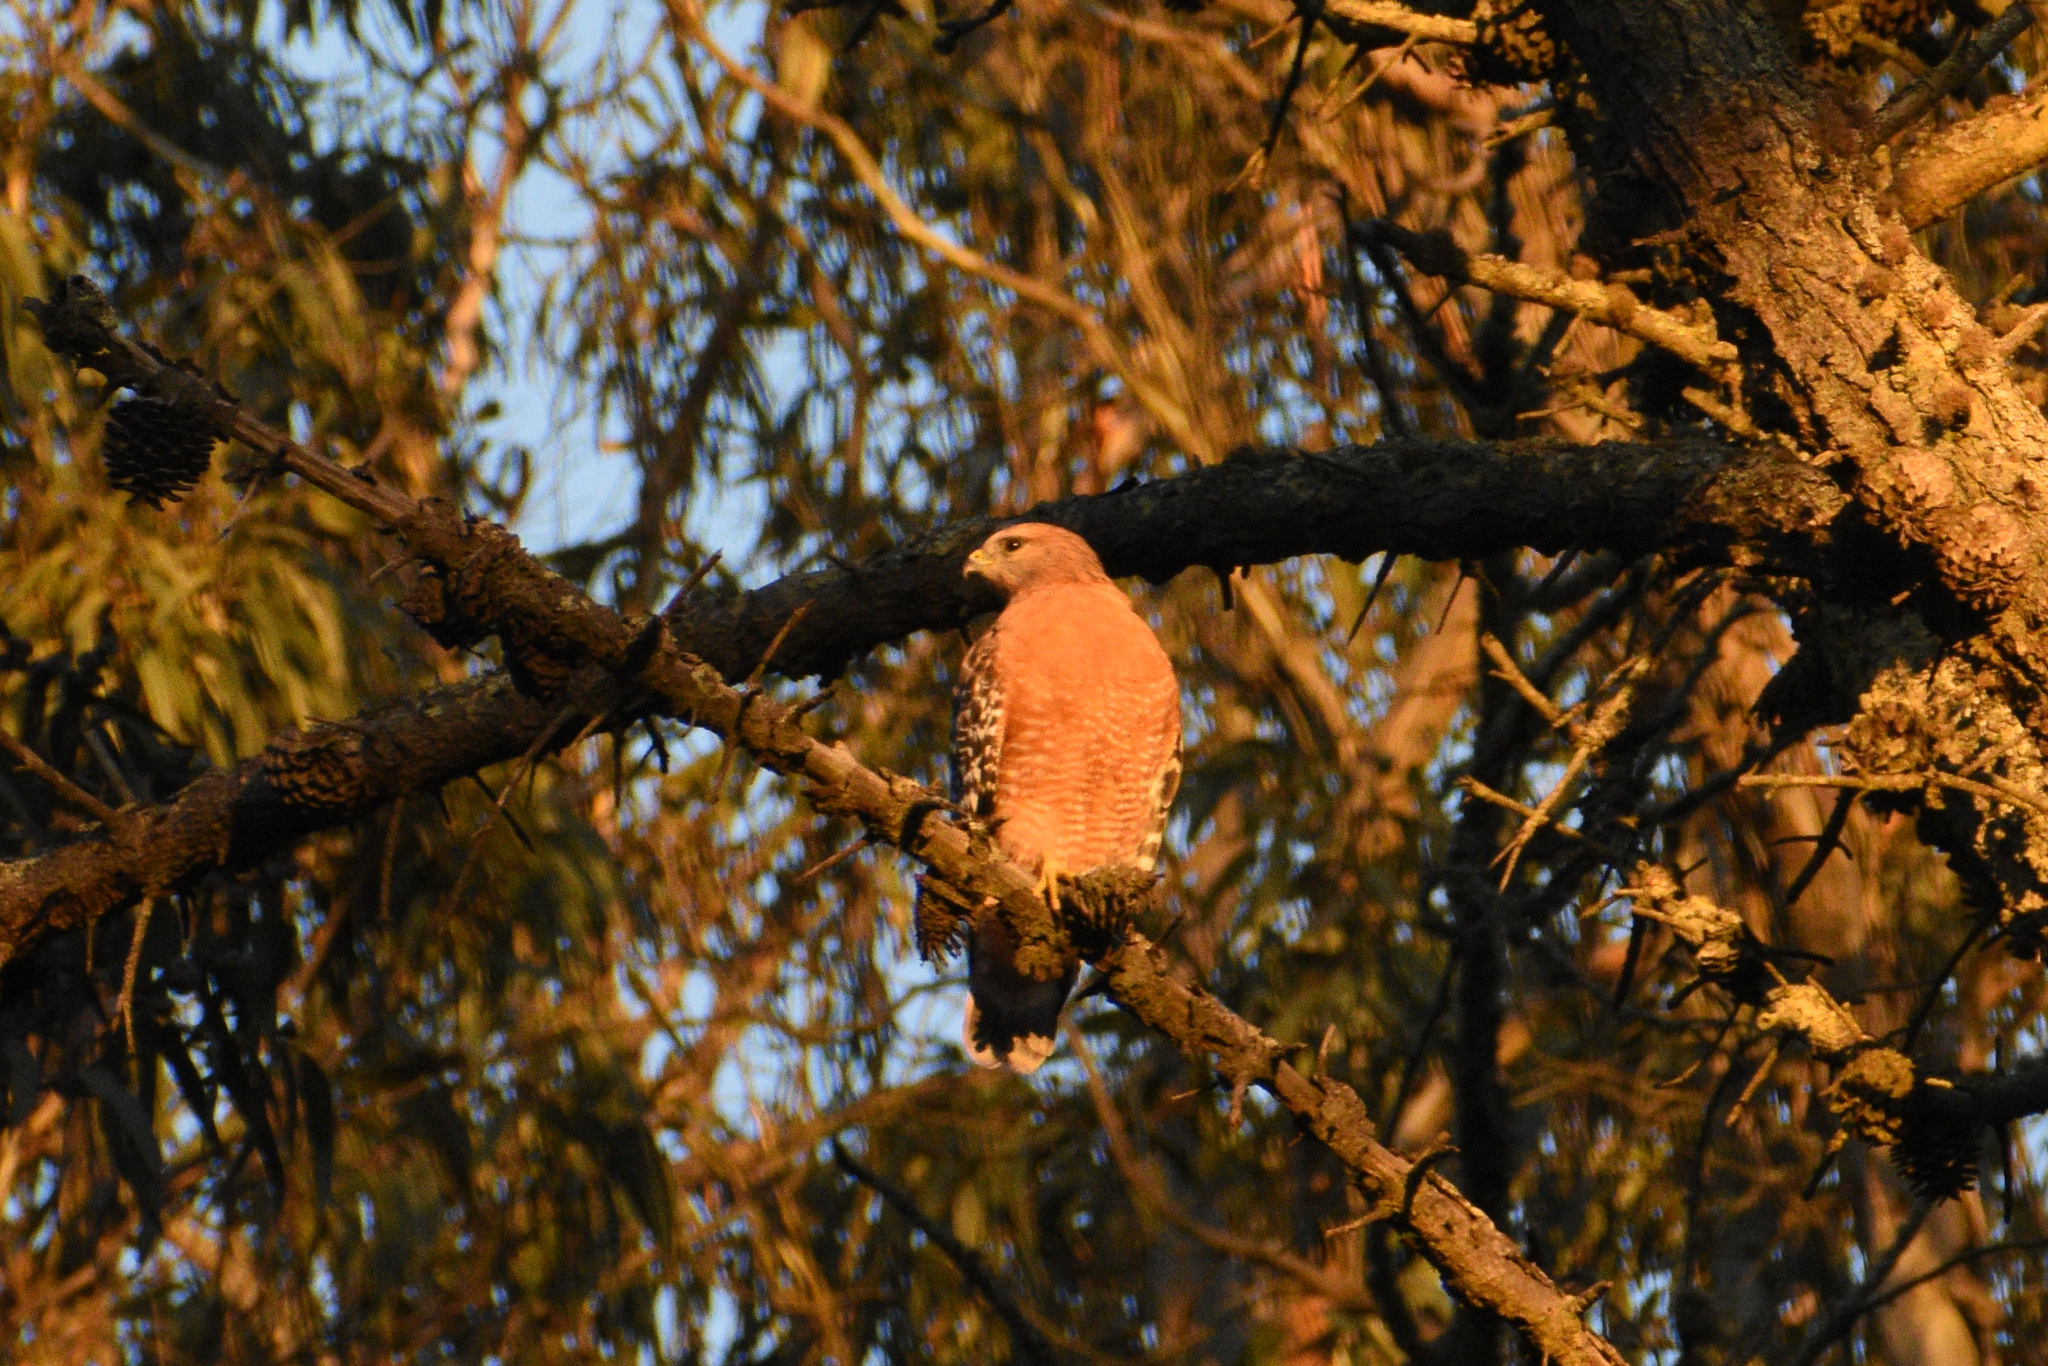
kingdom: Animalia
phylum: Chordata
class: Aves
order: Accipitriformes
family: Accipitridae
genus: Buteo
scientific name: Buteo lineatus
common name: Red-shouldered hawk
